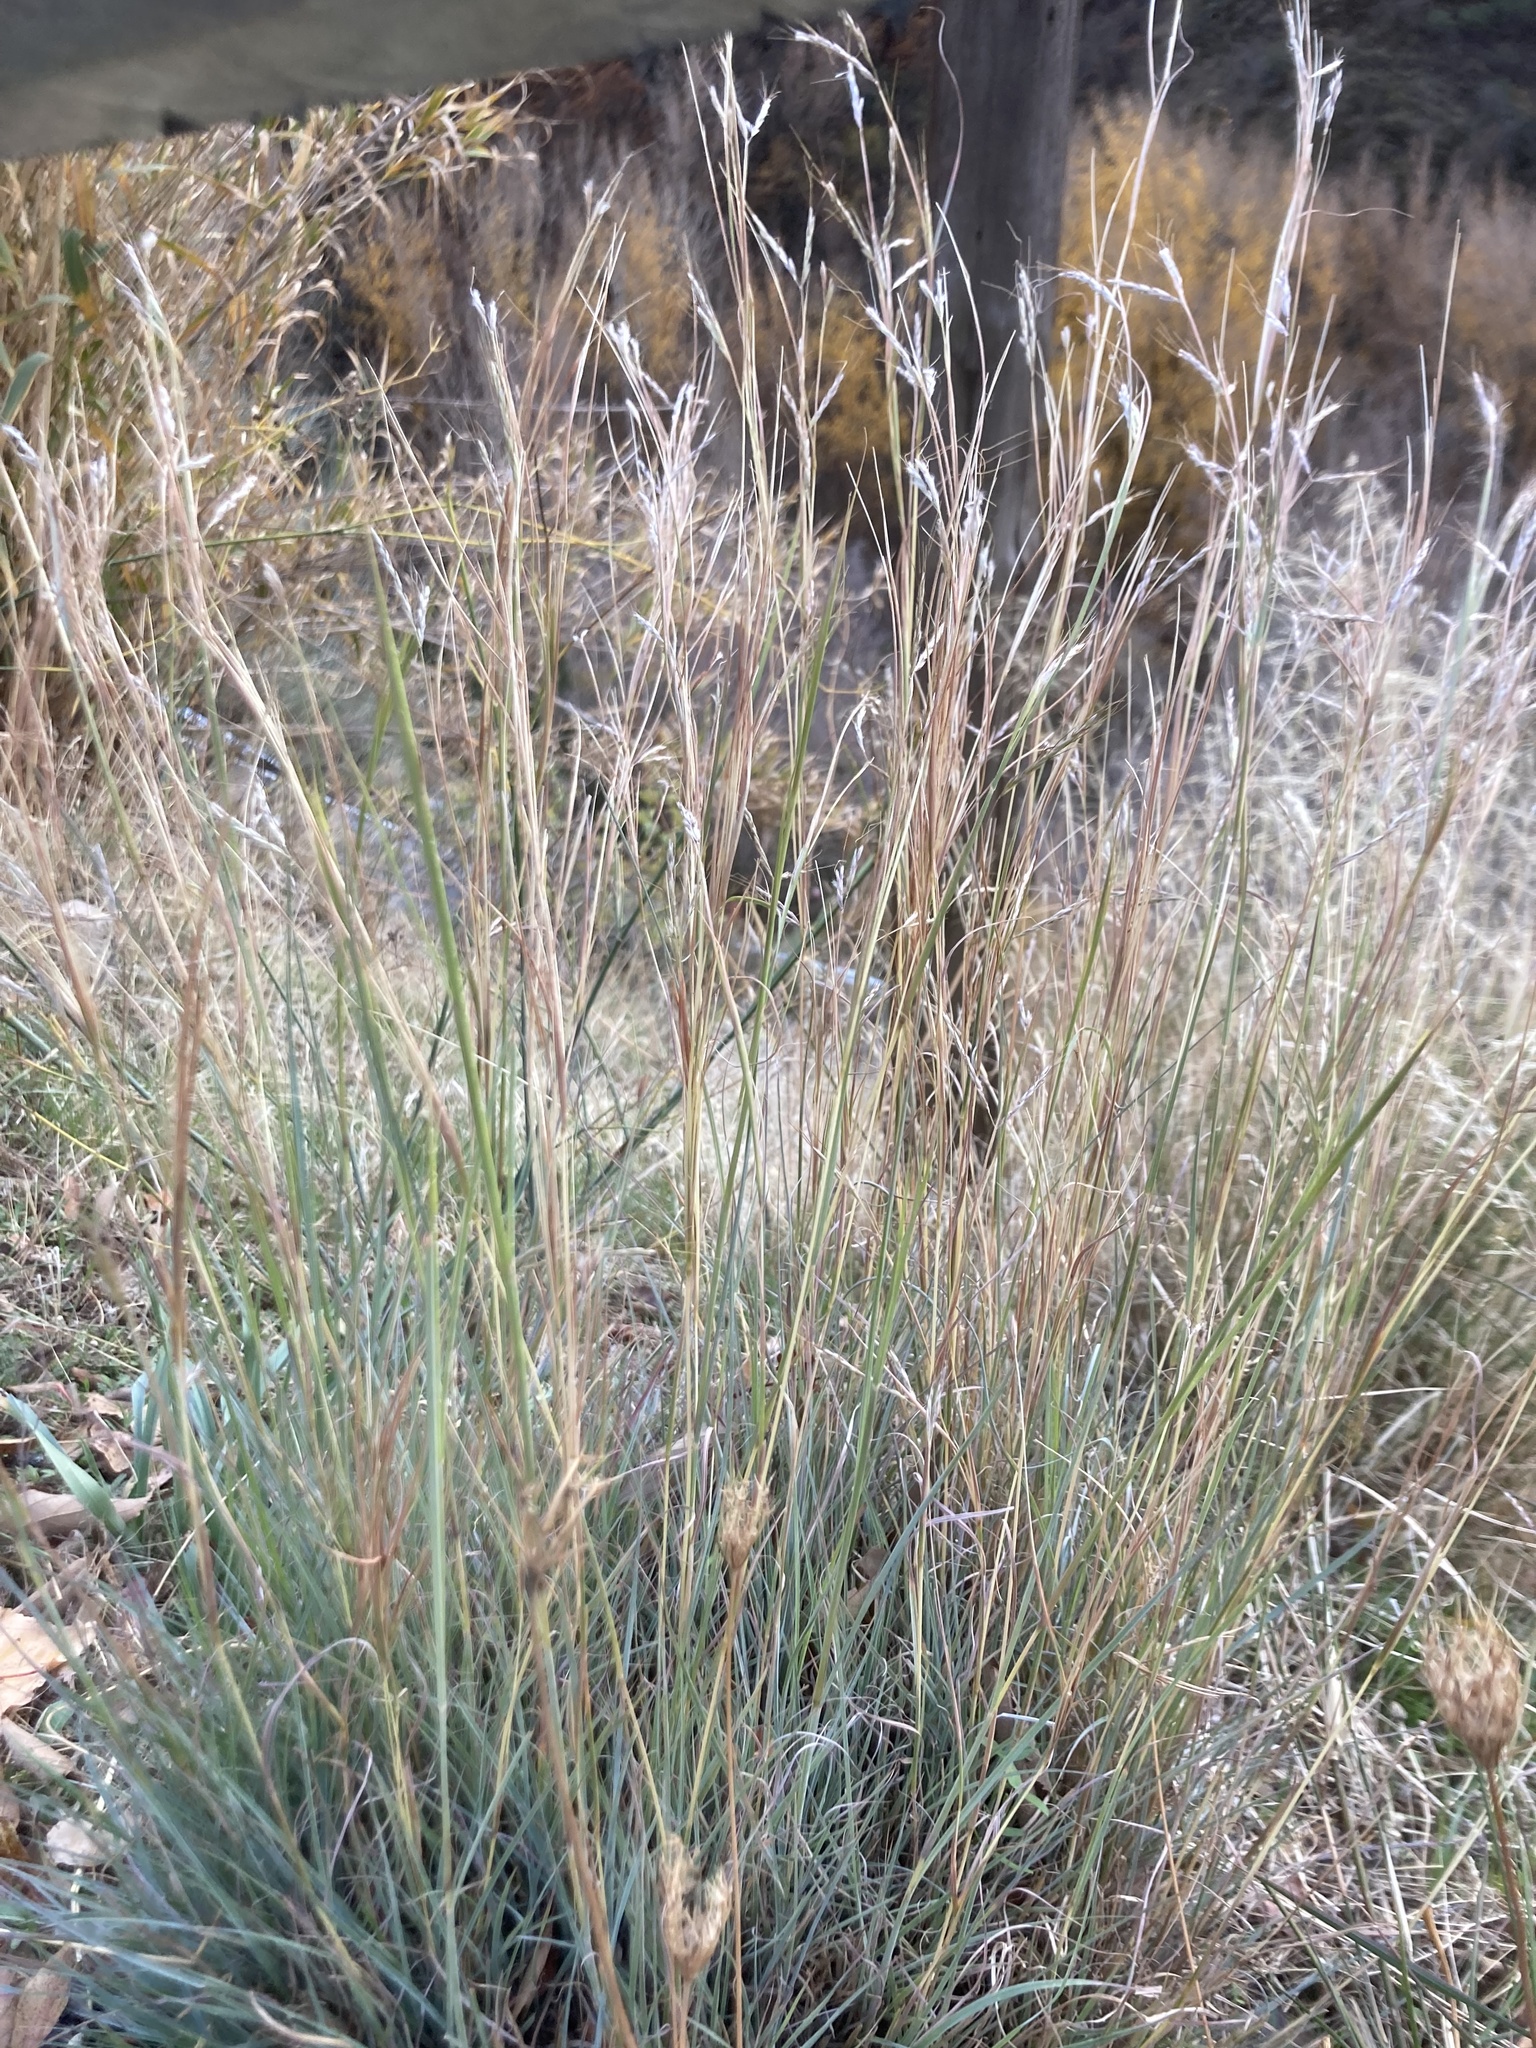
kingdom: Plantae
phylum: Tracheophyta
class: Liliopsida
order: Poales
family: Poaceae
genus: Hyparrhenia
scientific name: Hyparrhenia hirta
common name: Thatching grass
